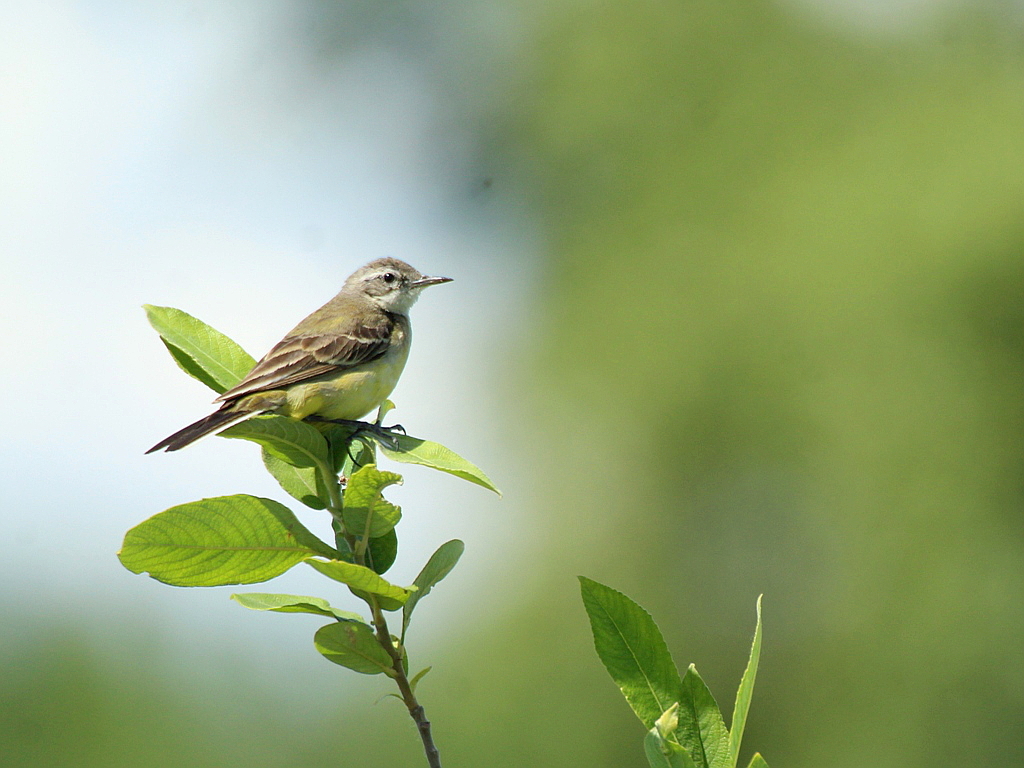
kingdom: Animalia
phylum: Chordata
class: Aves
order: Passeriformes
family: Motacillidae
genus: Motacilla
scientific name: Motacilla flava
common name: Western yellow wagtail
